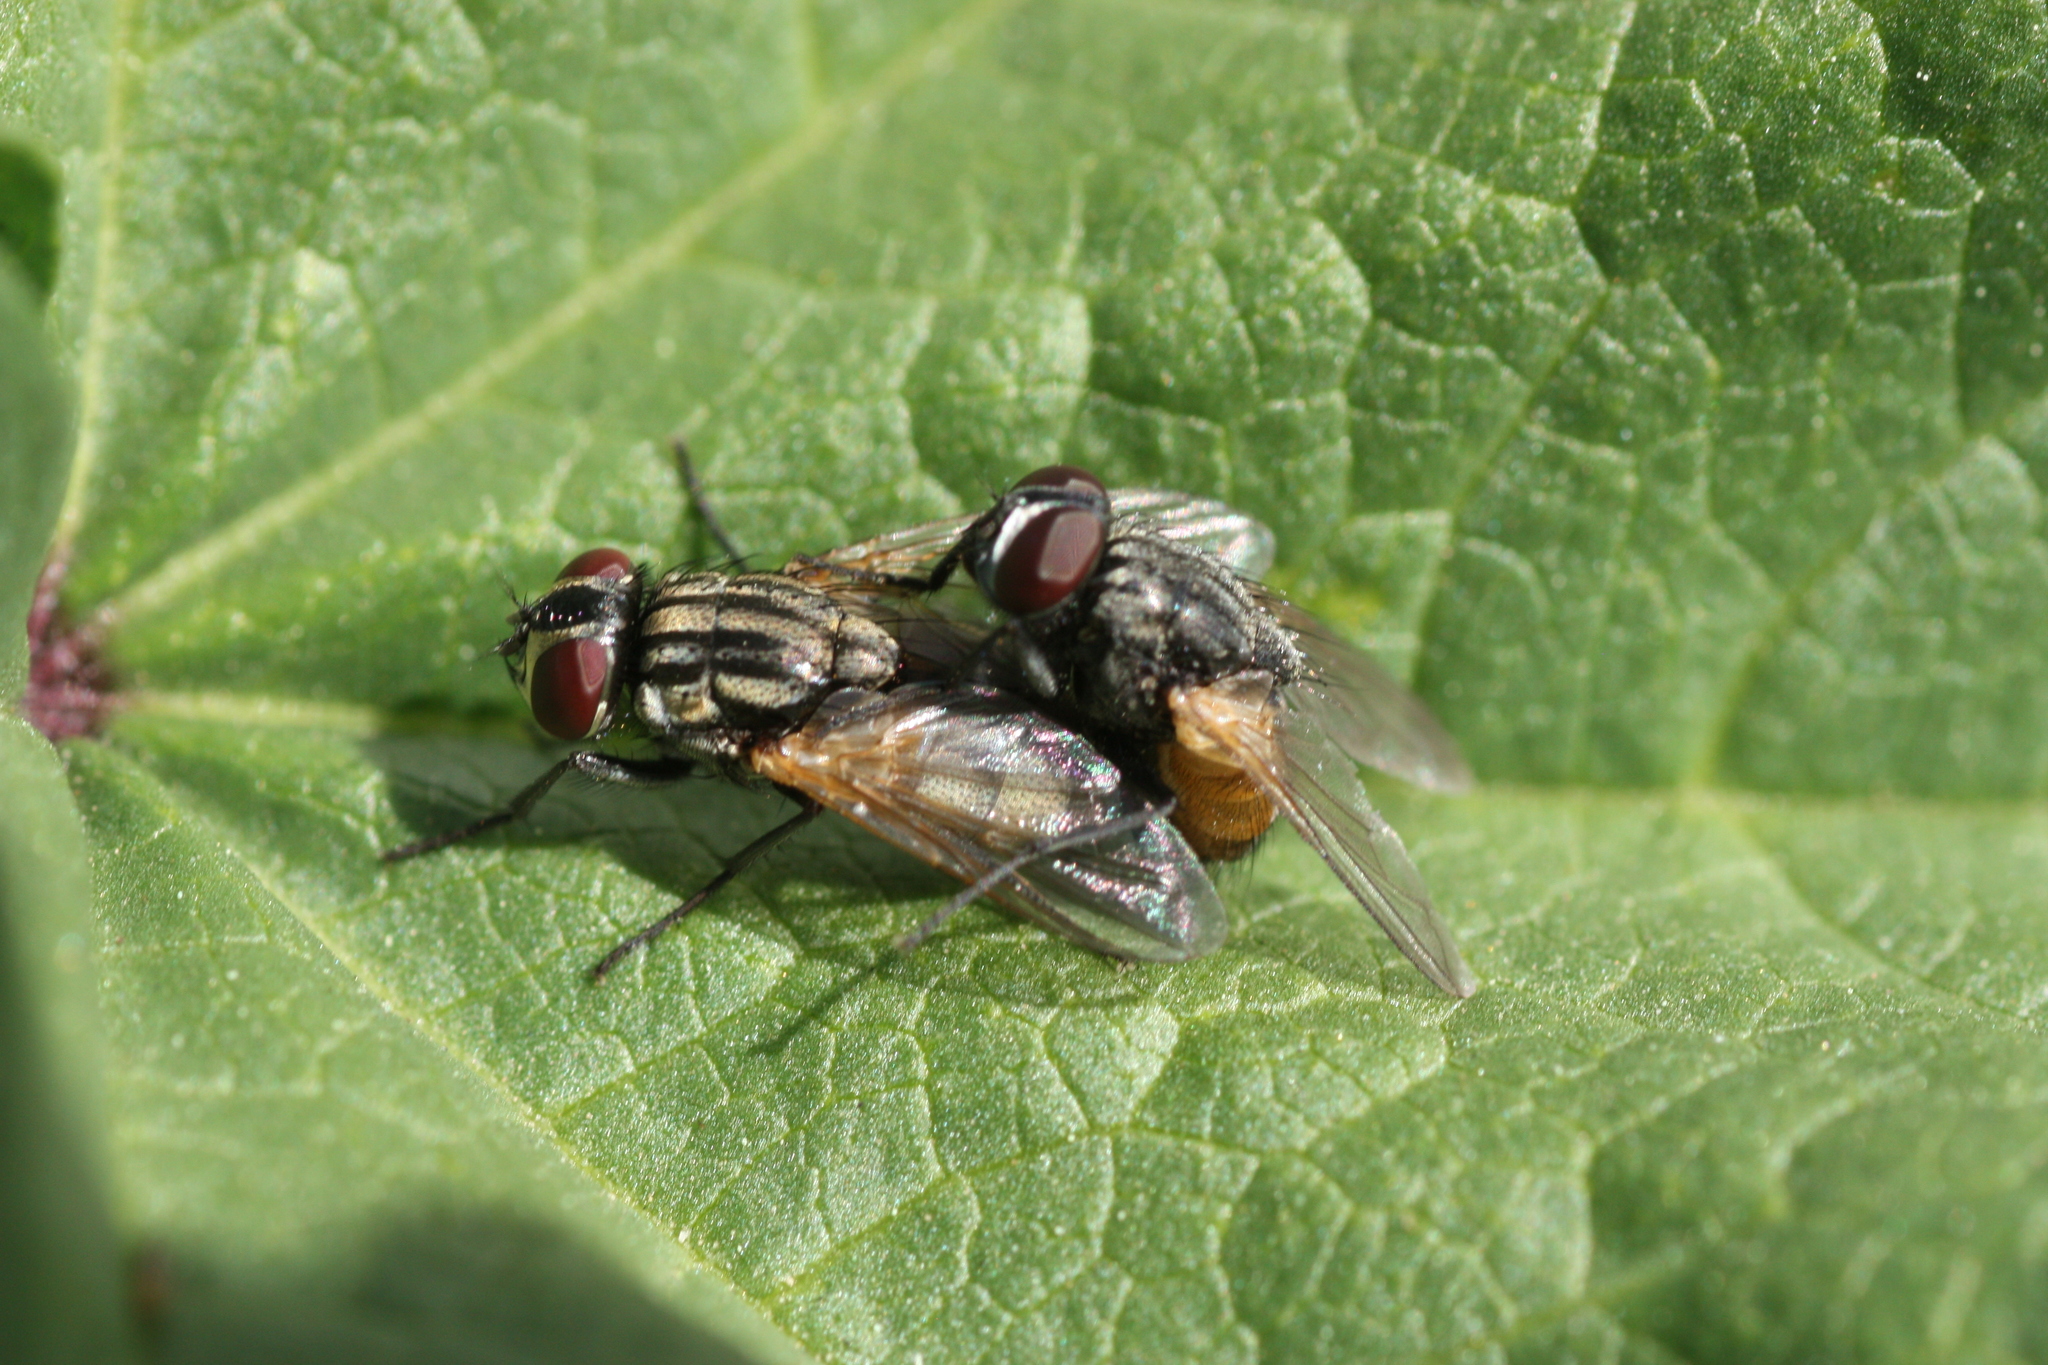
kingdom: Animalia
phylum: Arthropoda
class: Insecta
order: Diptera
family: Muscidae
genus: Musca
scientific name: Musca domestica
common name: House fly
